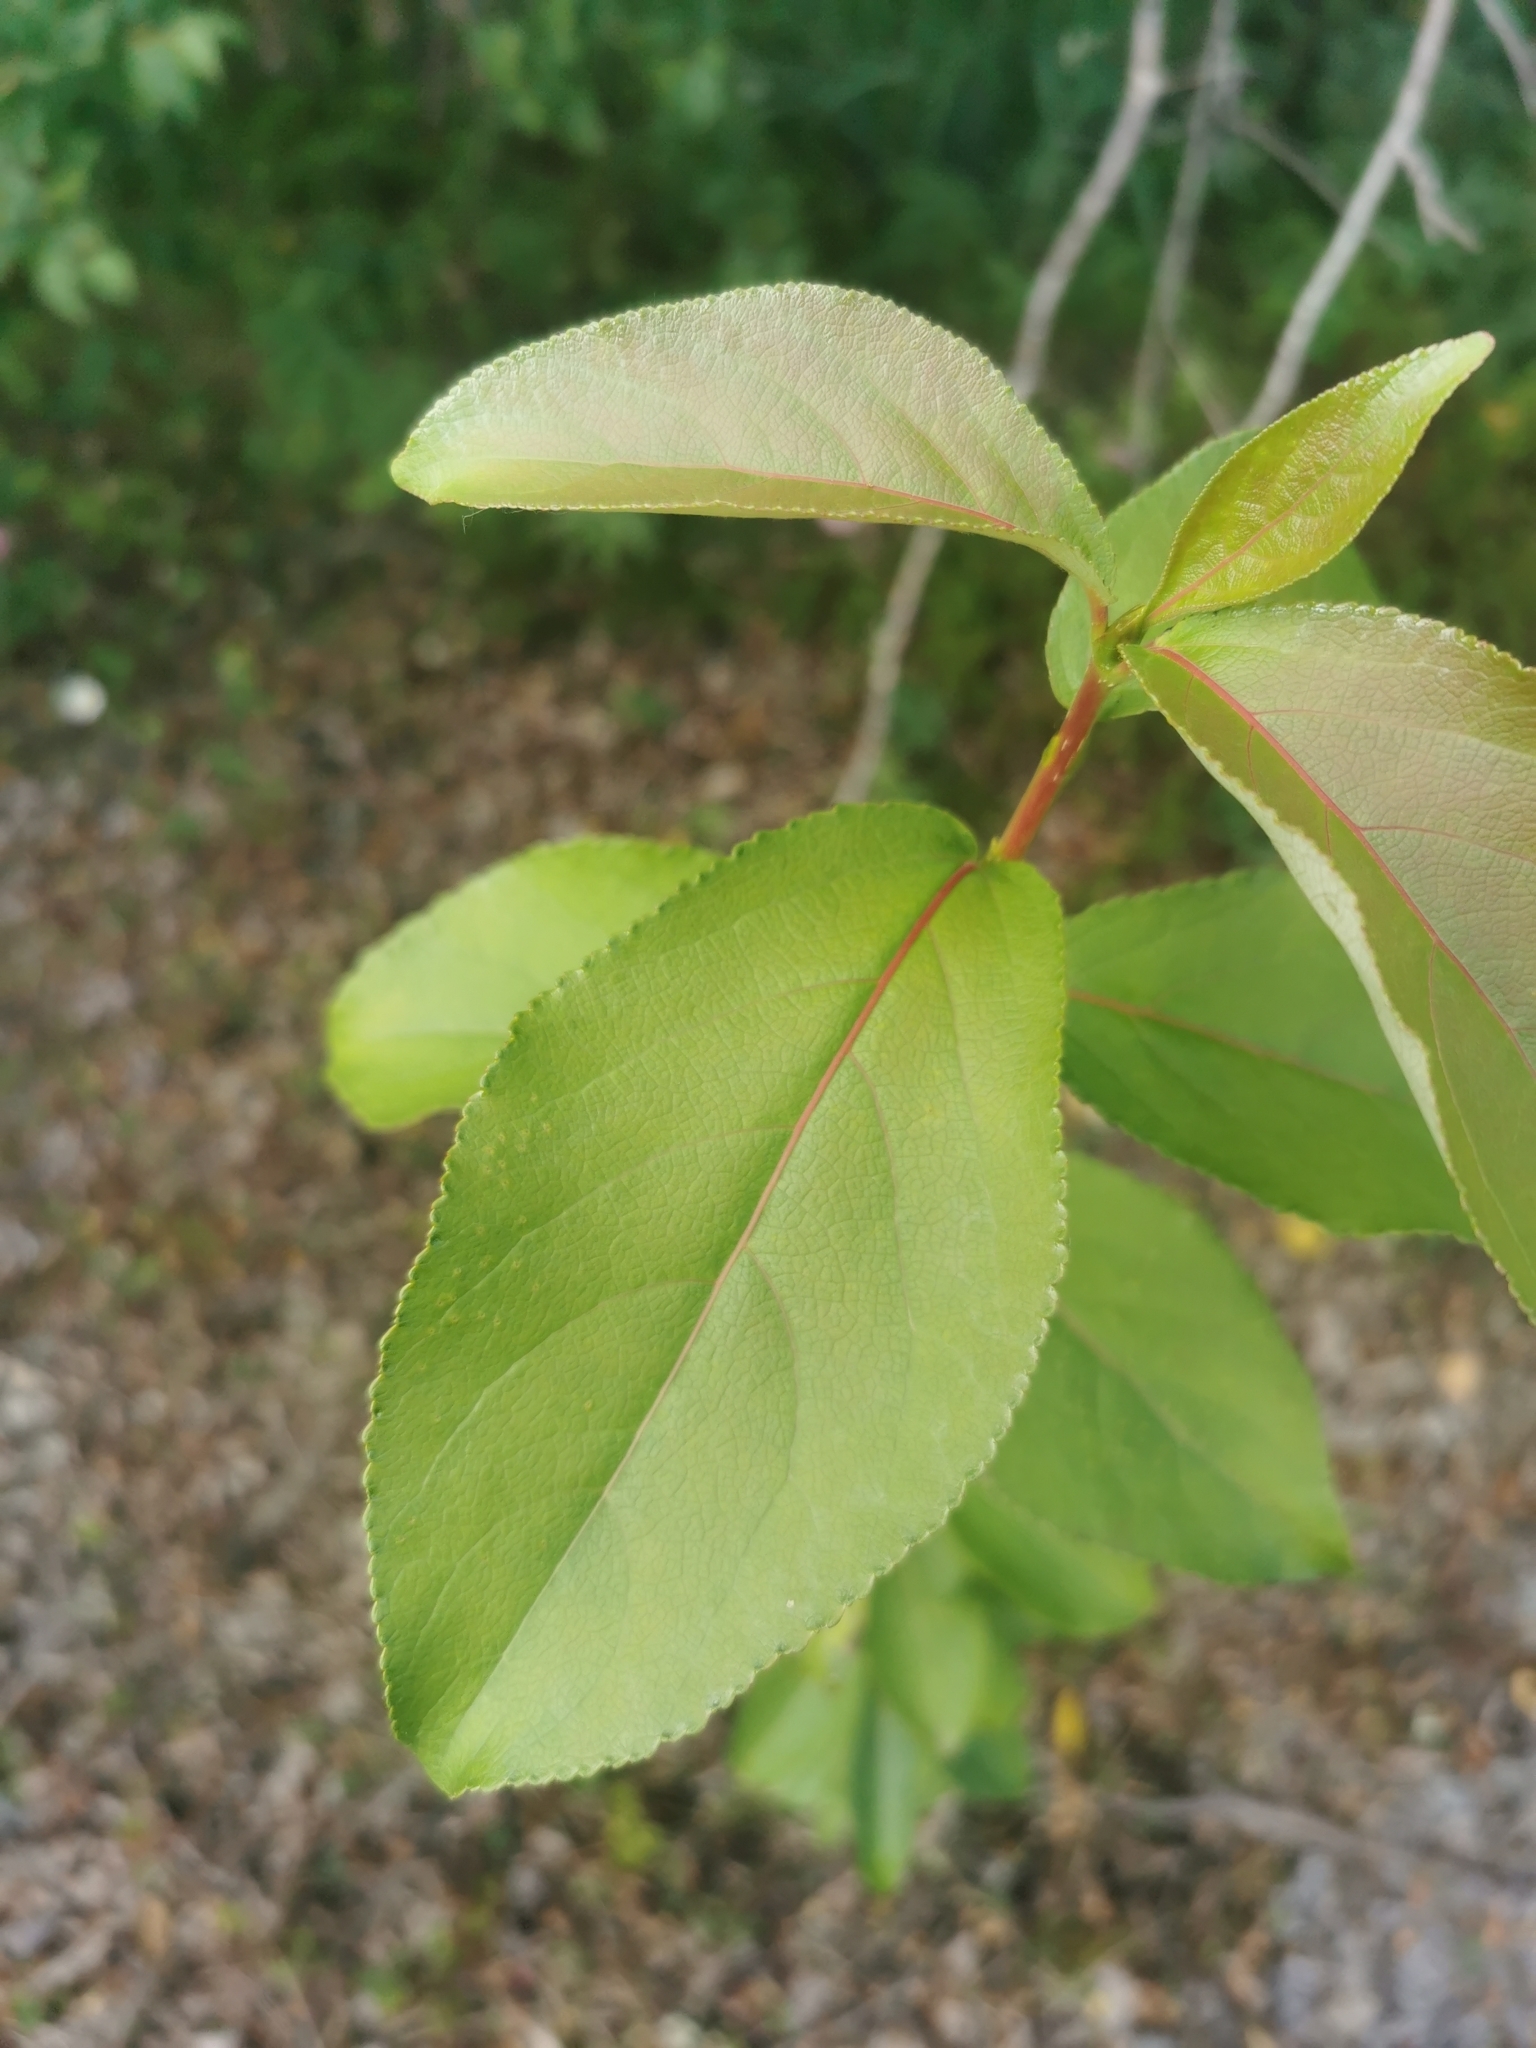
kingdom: Plantae
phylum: Tracheophyta
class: Magnoliopsida
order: Malpighiales
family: Salicaceae
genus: Populus
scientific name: Populus suaveolens
